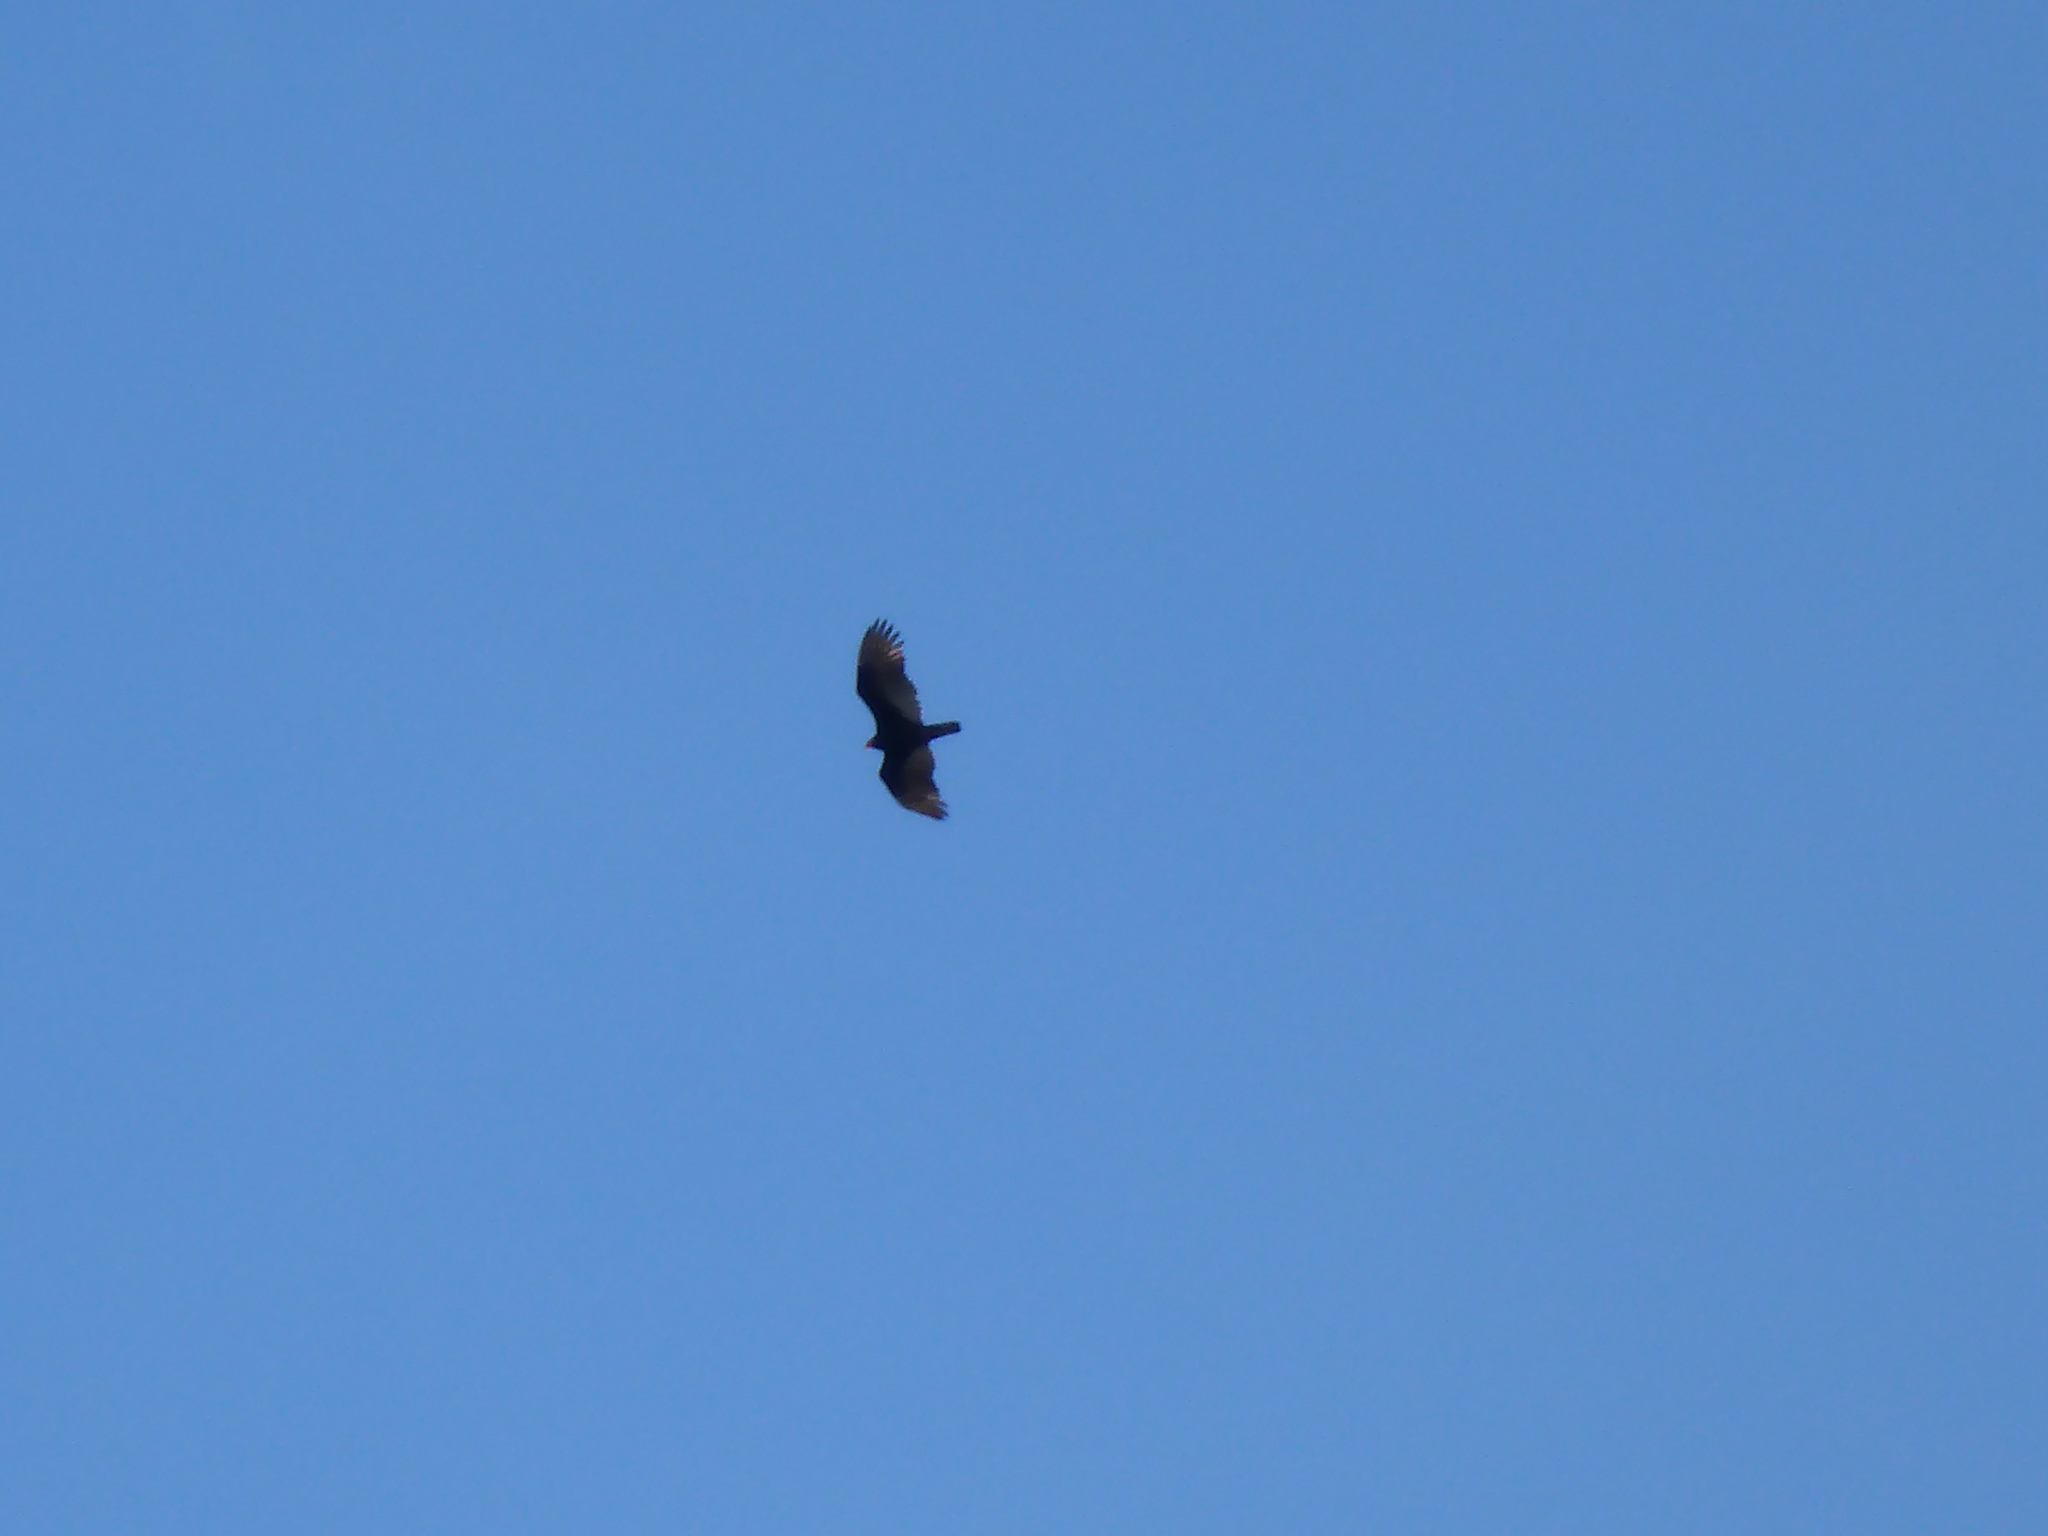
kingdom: Animalia
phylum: Chordata
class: Aves
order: Accipitriformes
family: Cathartidae
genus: Cathartes
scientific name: Cathartes aura
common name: Turkey vulture
